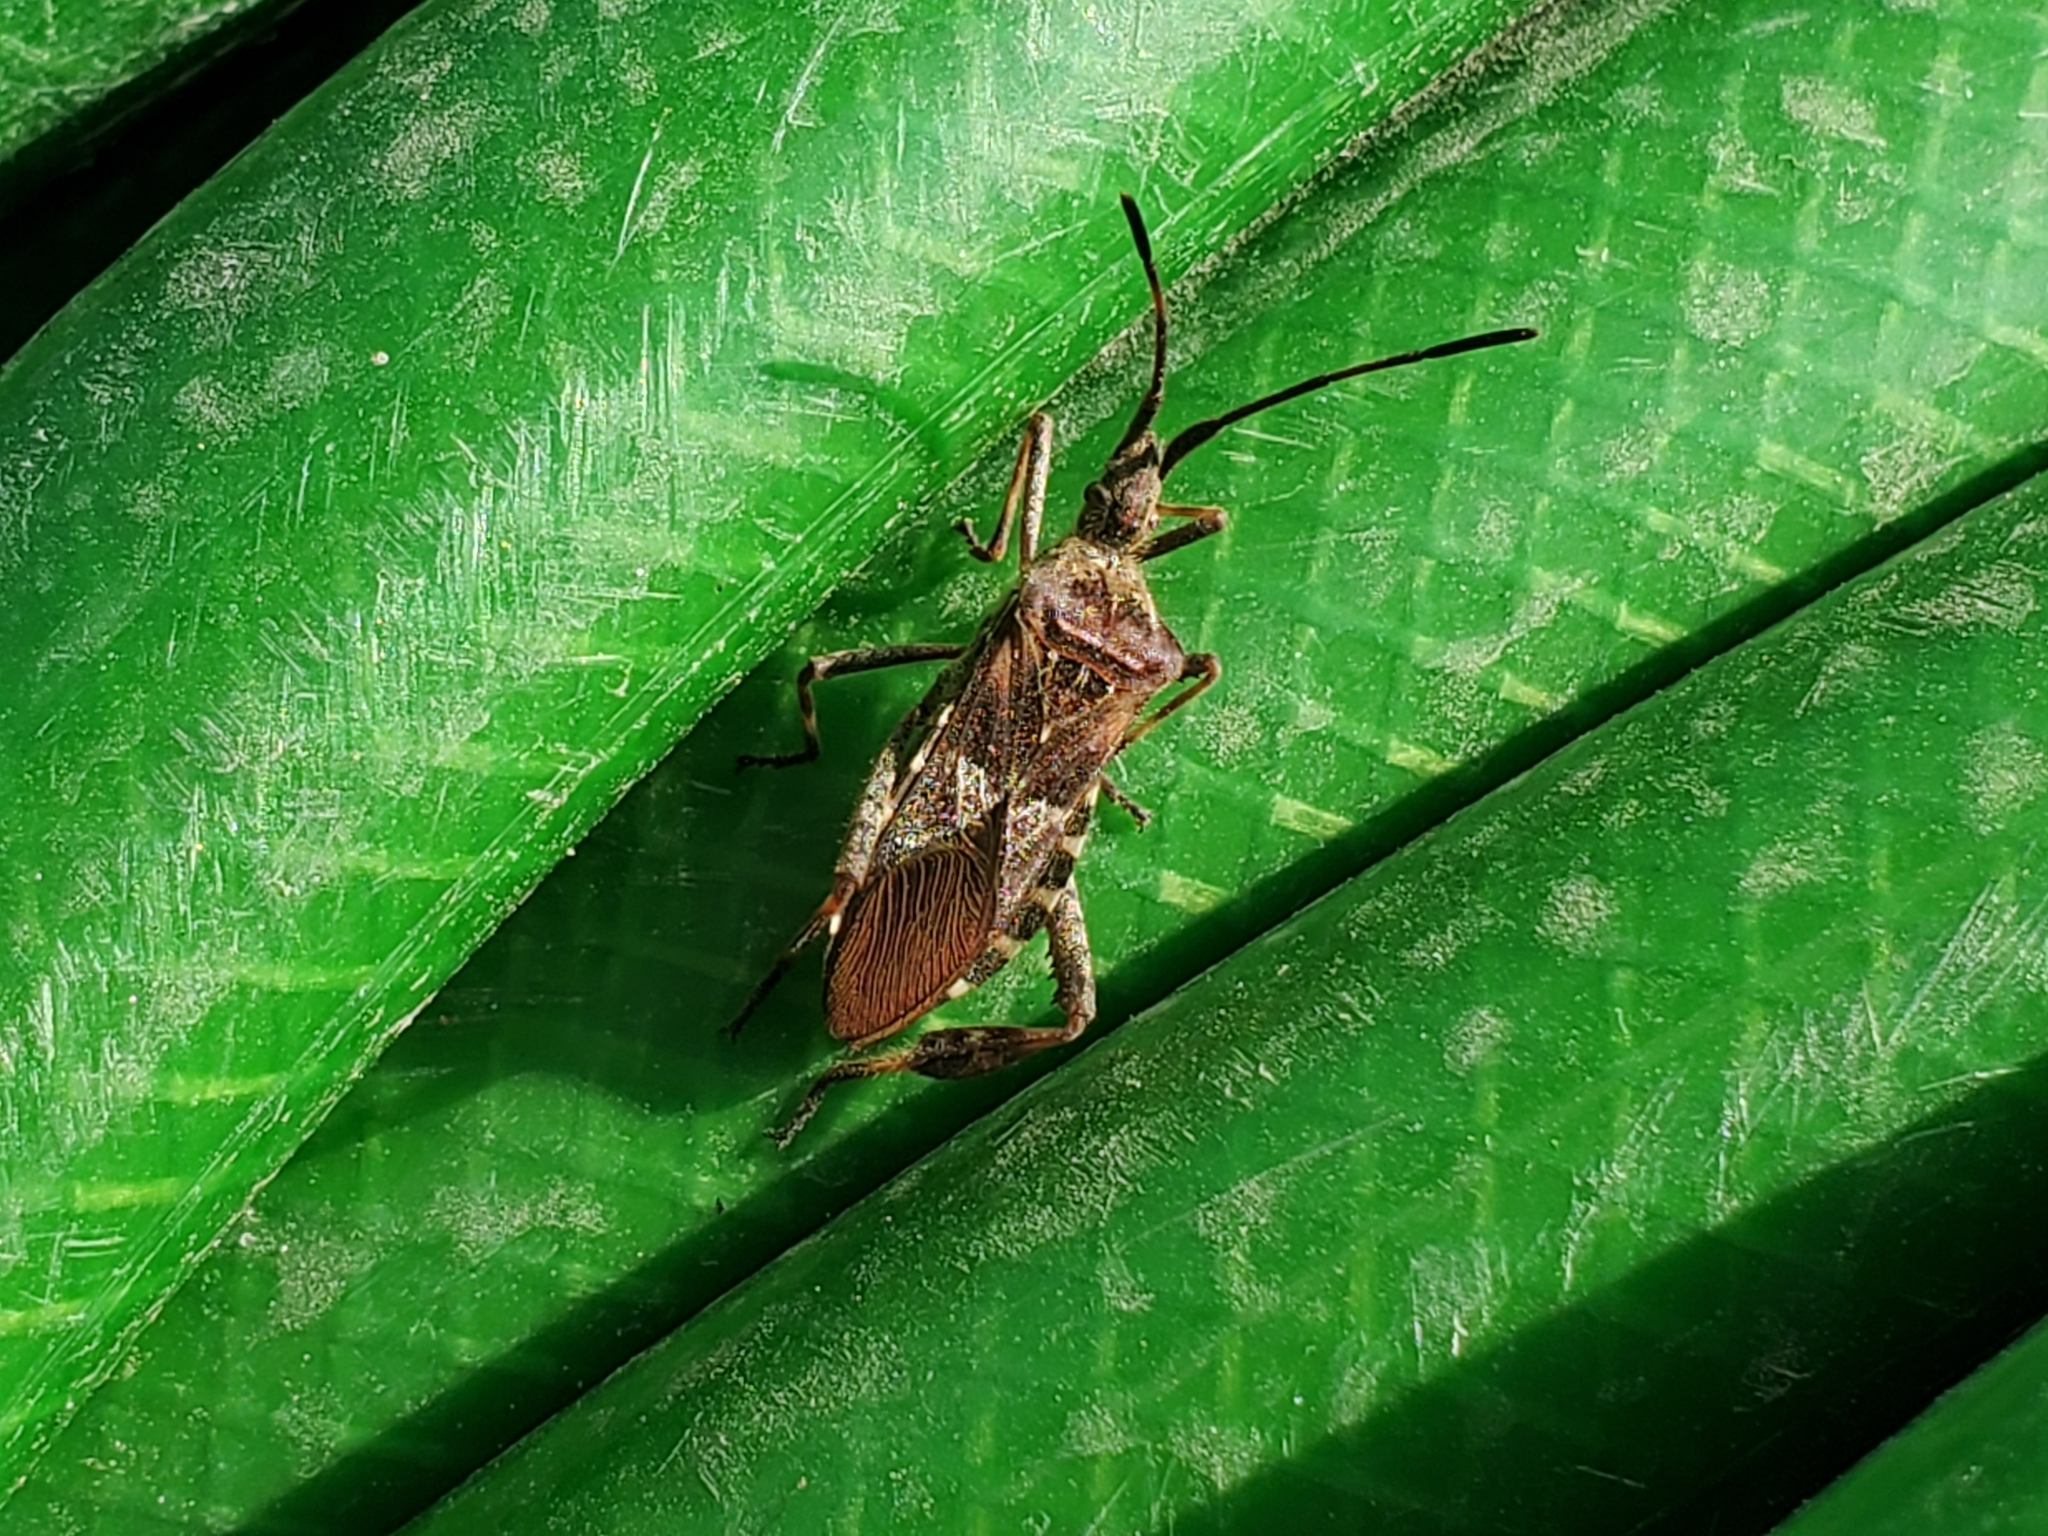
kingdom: Animalia
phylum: Arthropoda
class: Insecta
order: Hemiptera
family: Coreidae
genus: Leptoglossus
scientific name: Leptoglossus occidentalis
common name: Western conifer-seed bug
